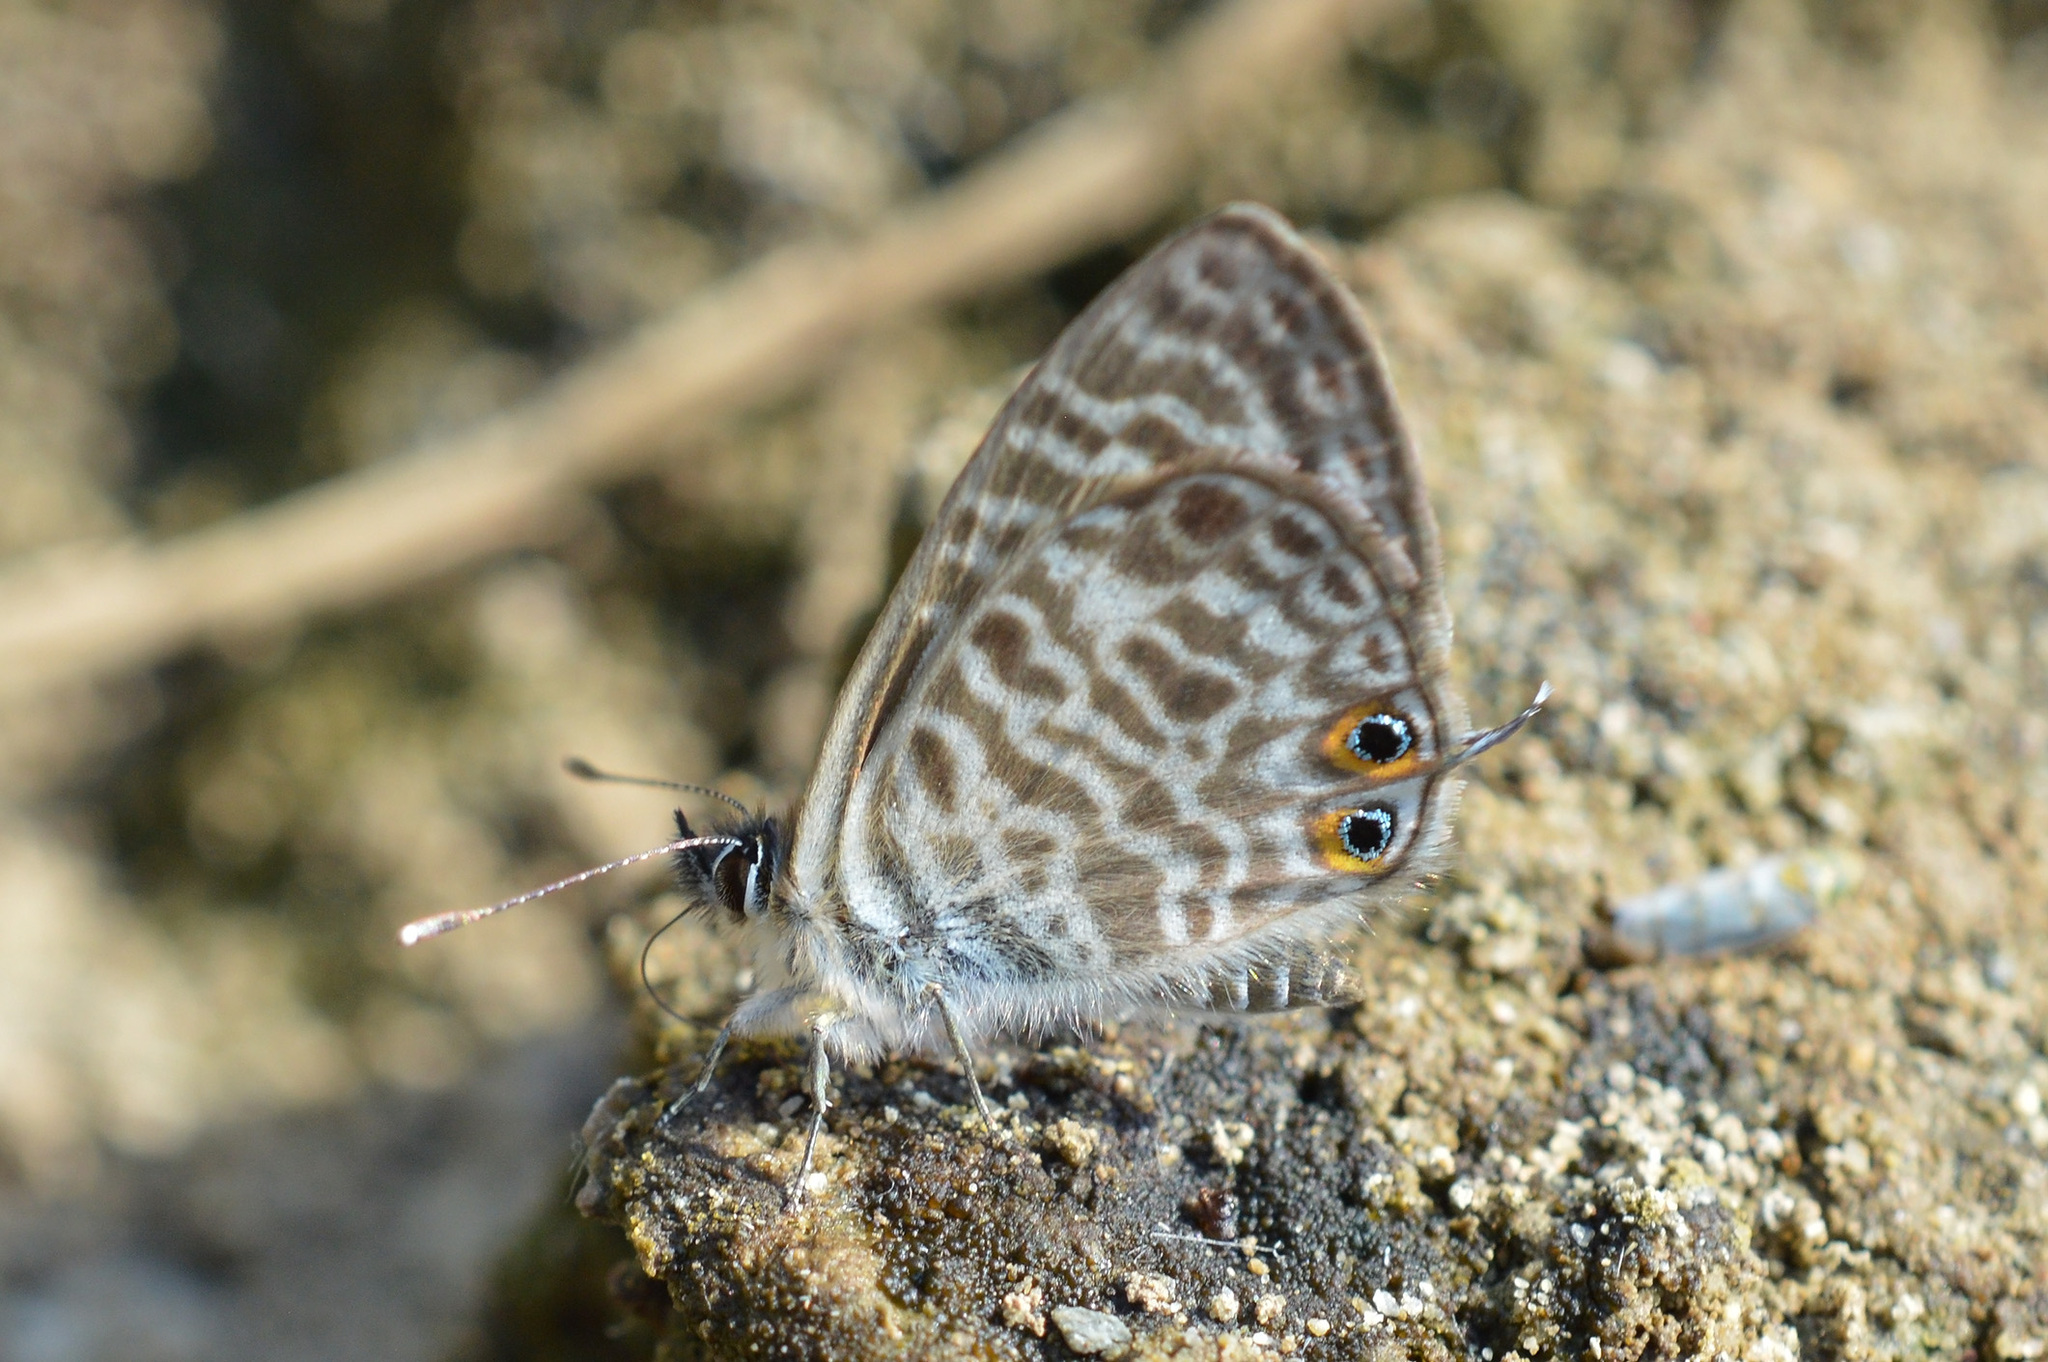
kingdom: Animalia
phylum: Arthropoda
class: Insecta
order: Lepidoptera
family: Lycaenidae
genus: Leptotes
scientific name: Leptotes pirithous
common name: Lang's short-tailed blue
